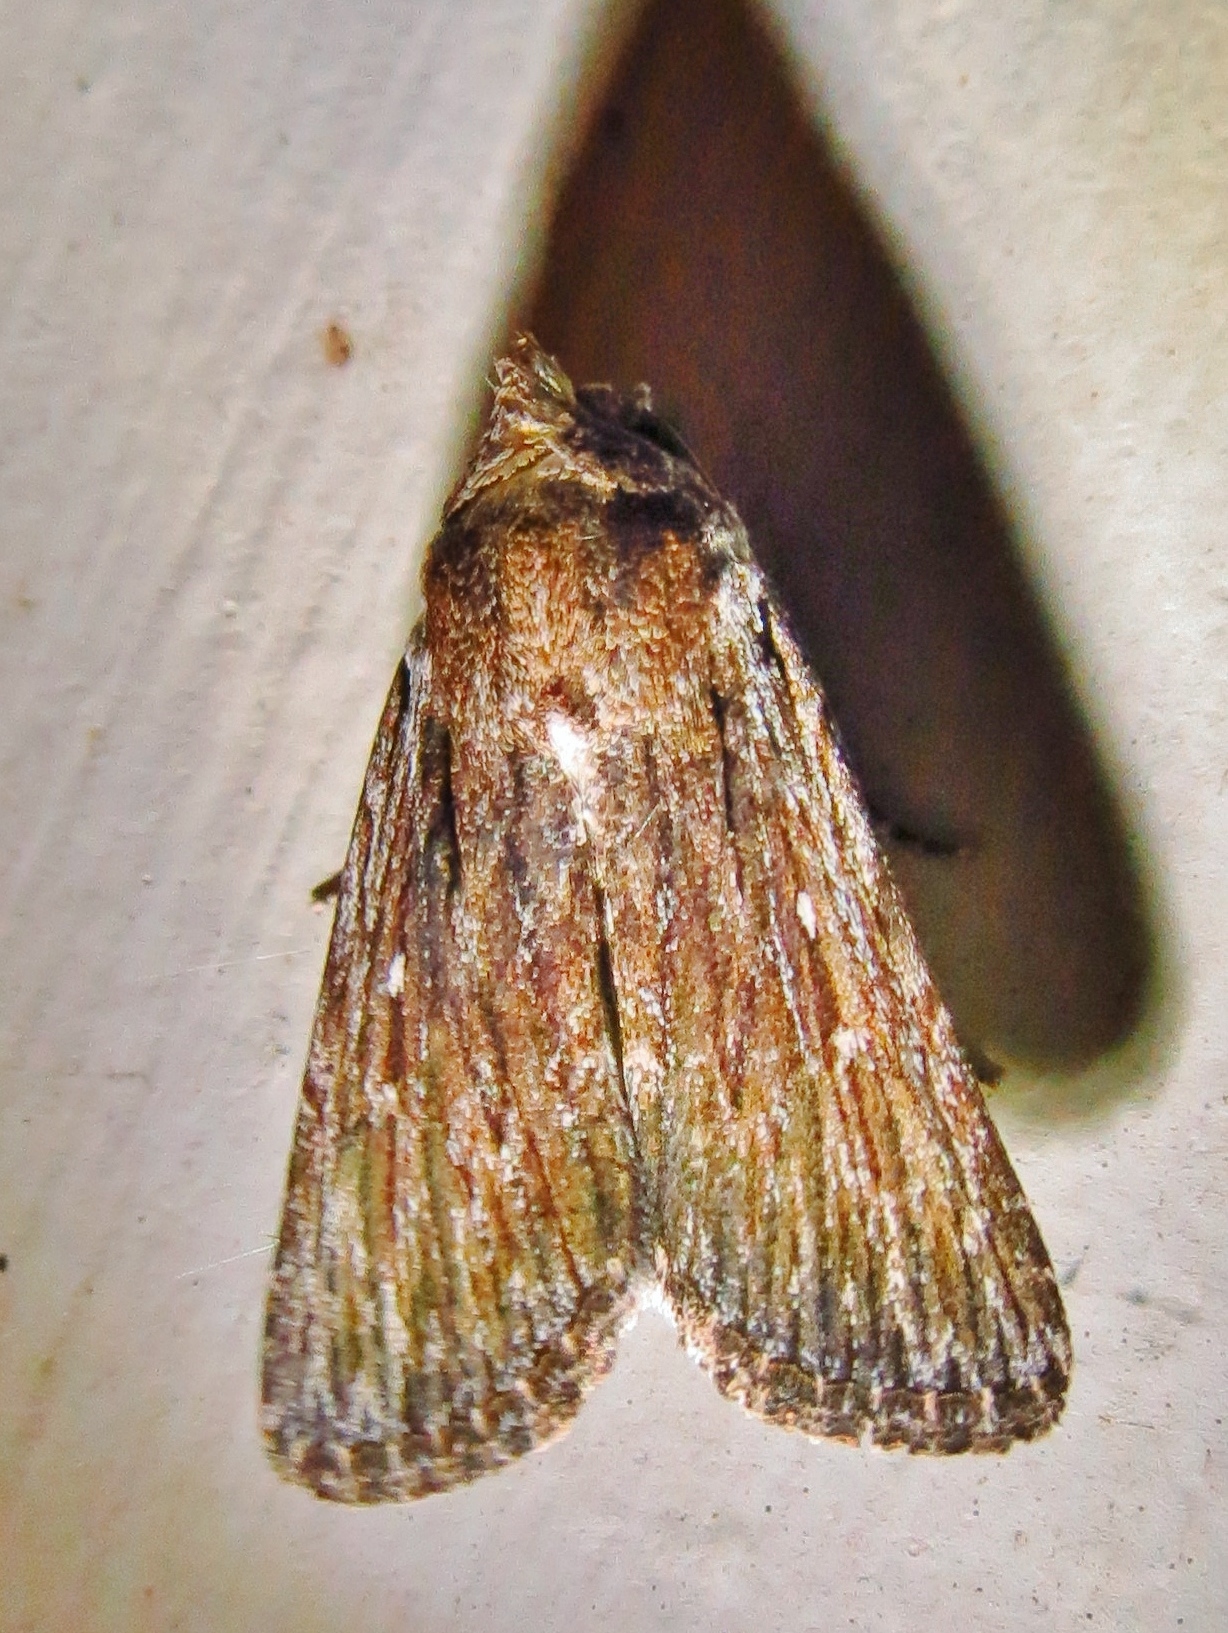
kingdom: Animalia
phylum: Arthropoda
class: Insecta
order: Lepidoptera
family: Noctuidae
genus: Neogalea
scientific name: Neogalea sunia
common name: Lantana stick caterpillar
